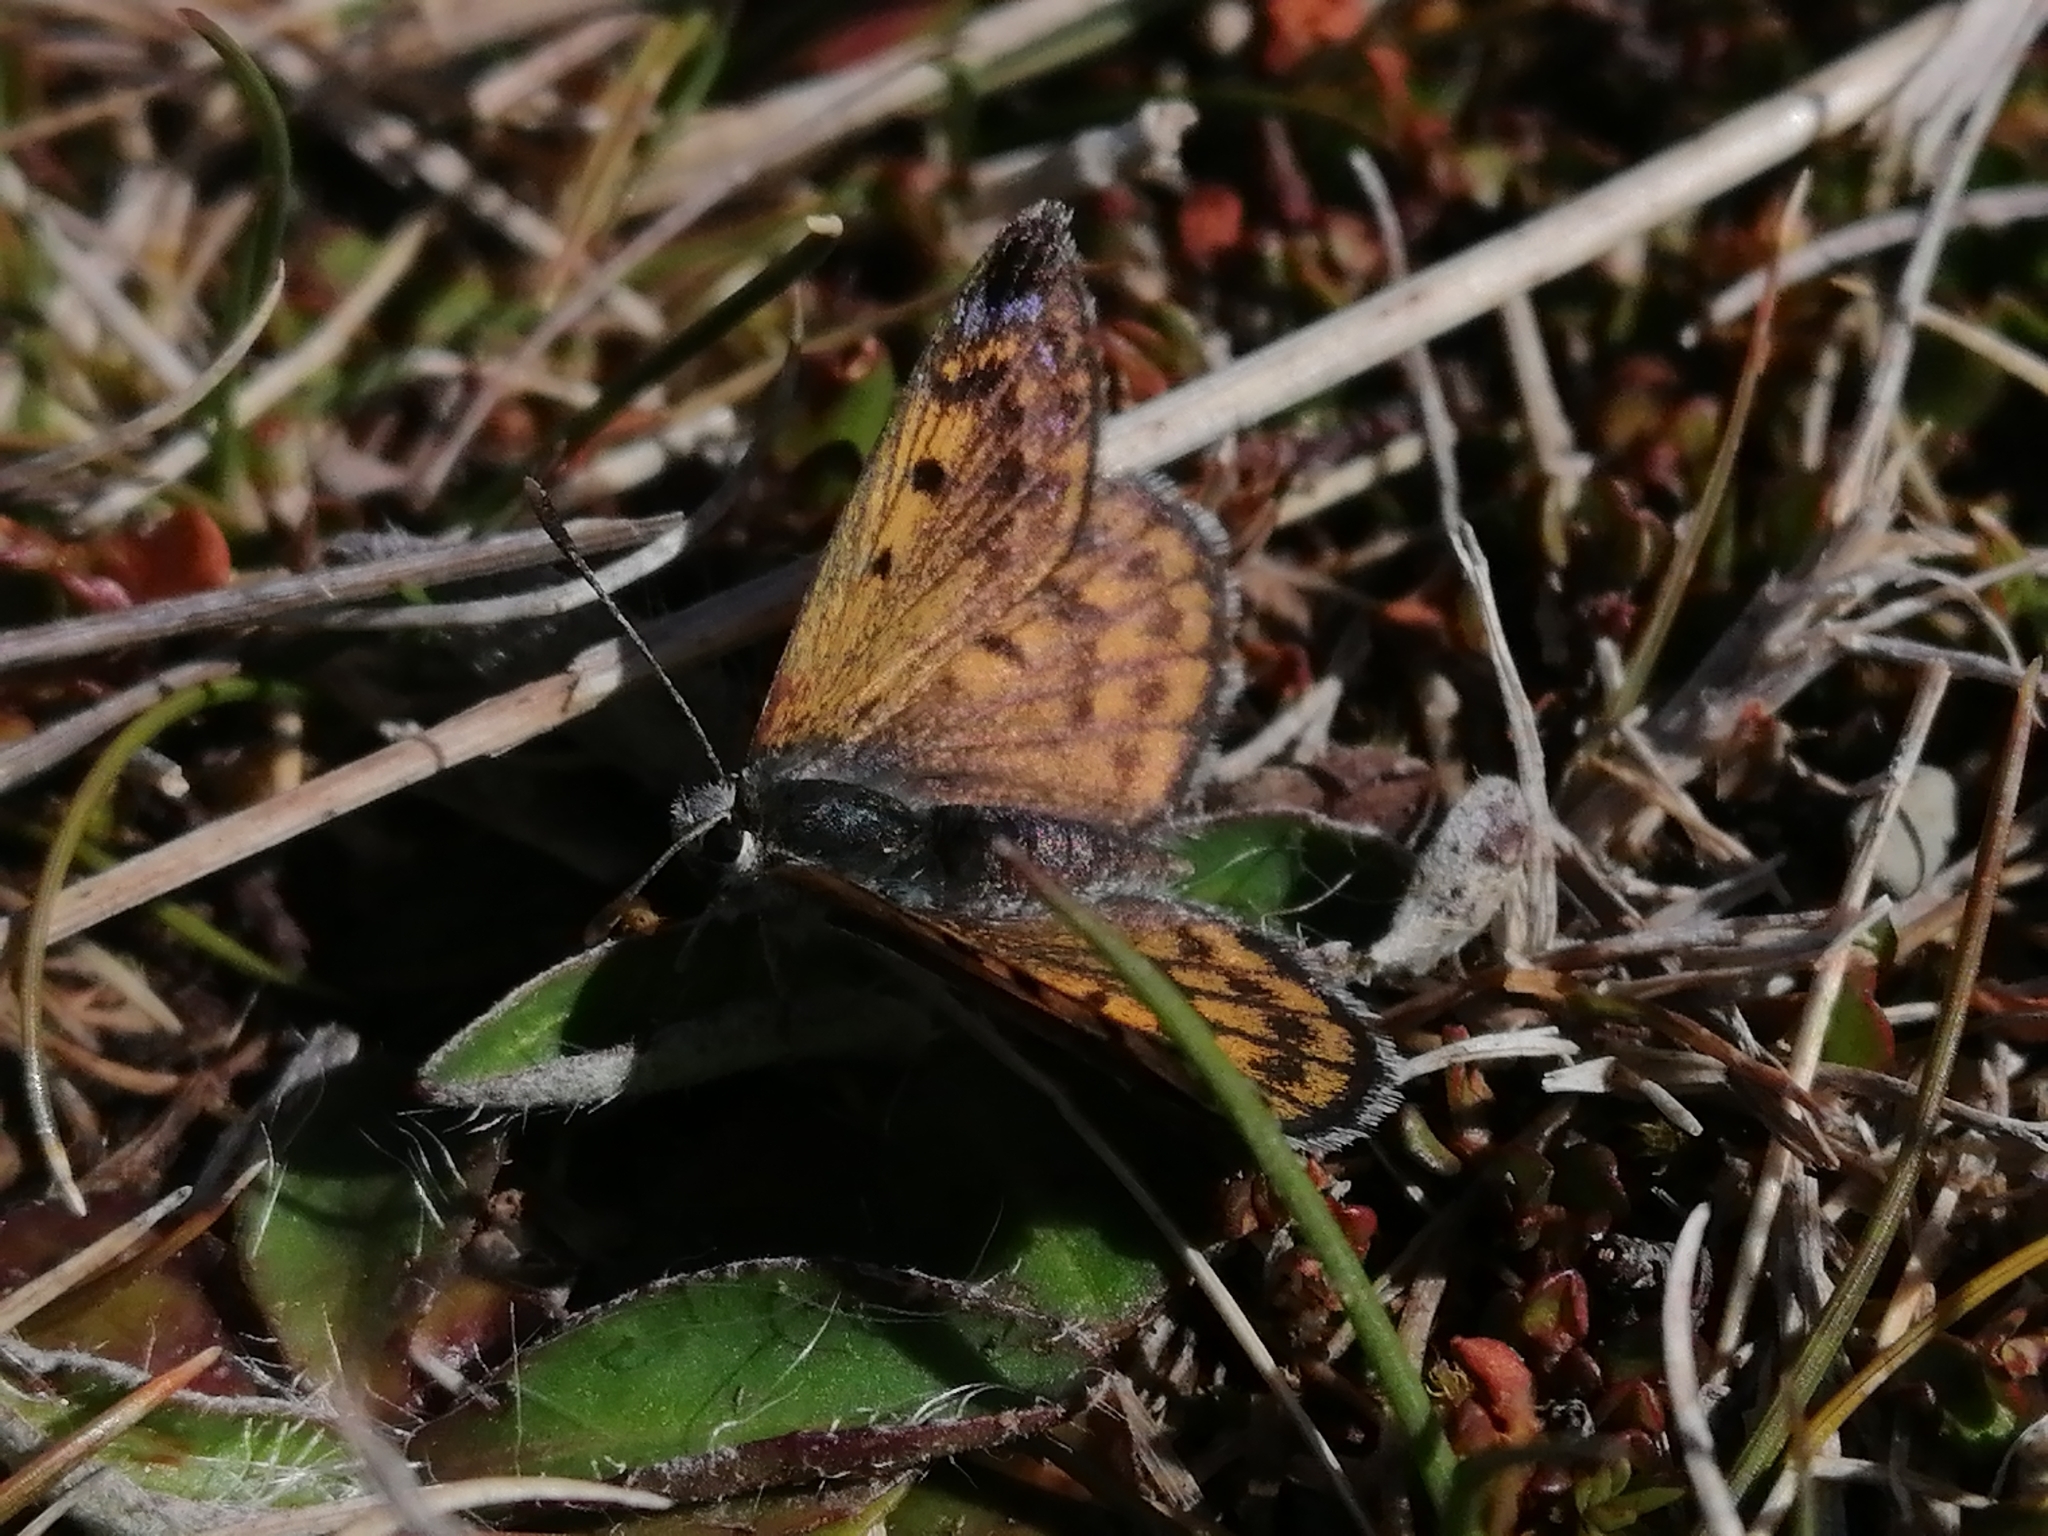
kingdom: Animalia
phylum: Arthropoda
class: Insecta
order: Lepidoptera
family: Lycaenidae
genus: Lycaena
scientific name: Lycaena tama
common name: Canterbury alpine boulder copper
